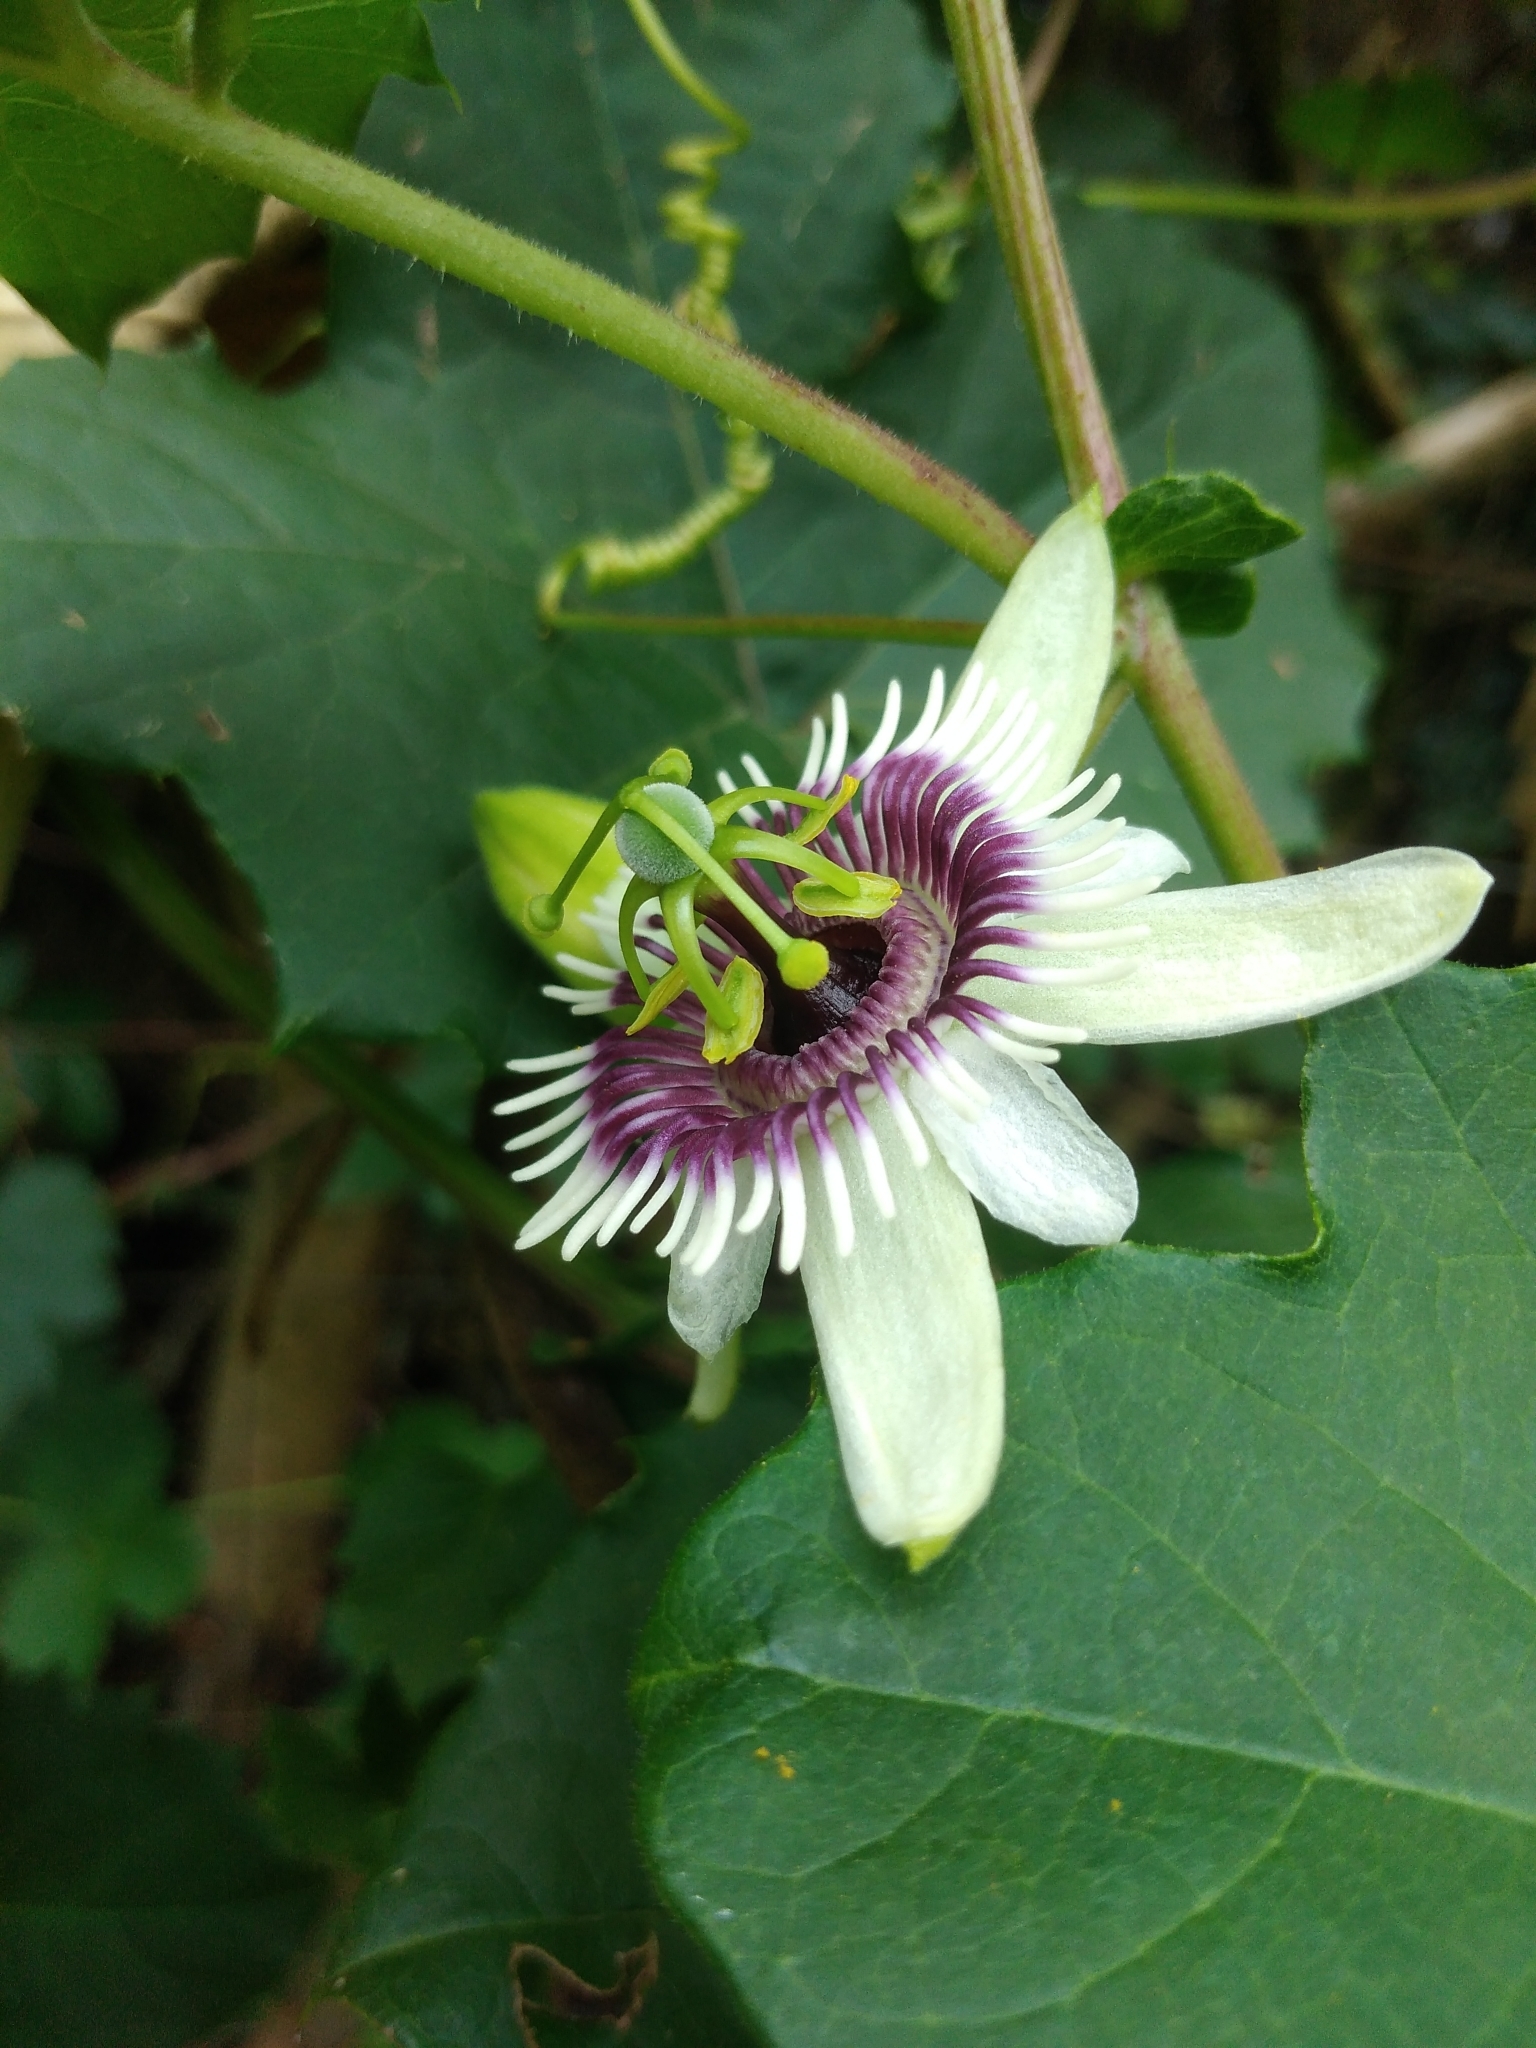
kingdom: Plantae
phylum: Tracheophyta
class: Magnoliopsida
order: Malpighiales
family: Passifloraceae
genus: Passiflora
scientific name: Passiflora morifolia
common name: Woodland passionflower
